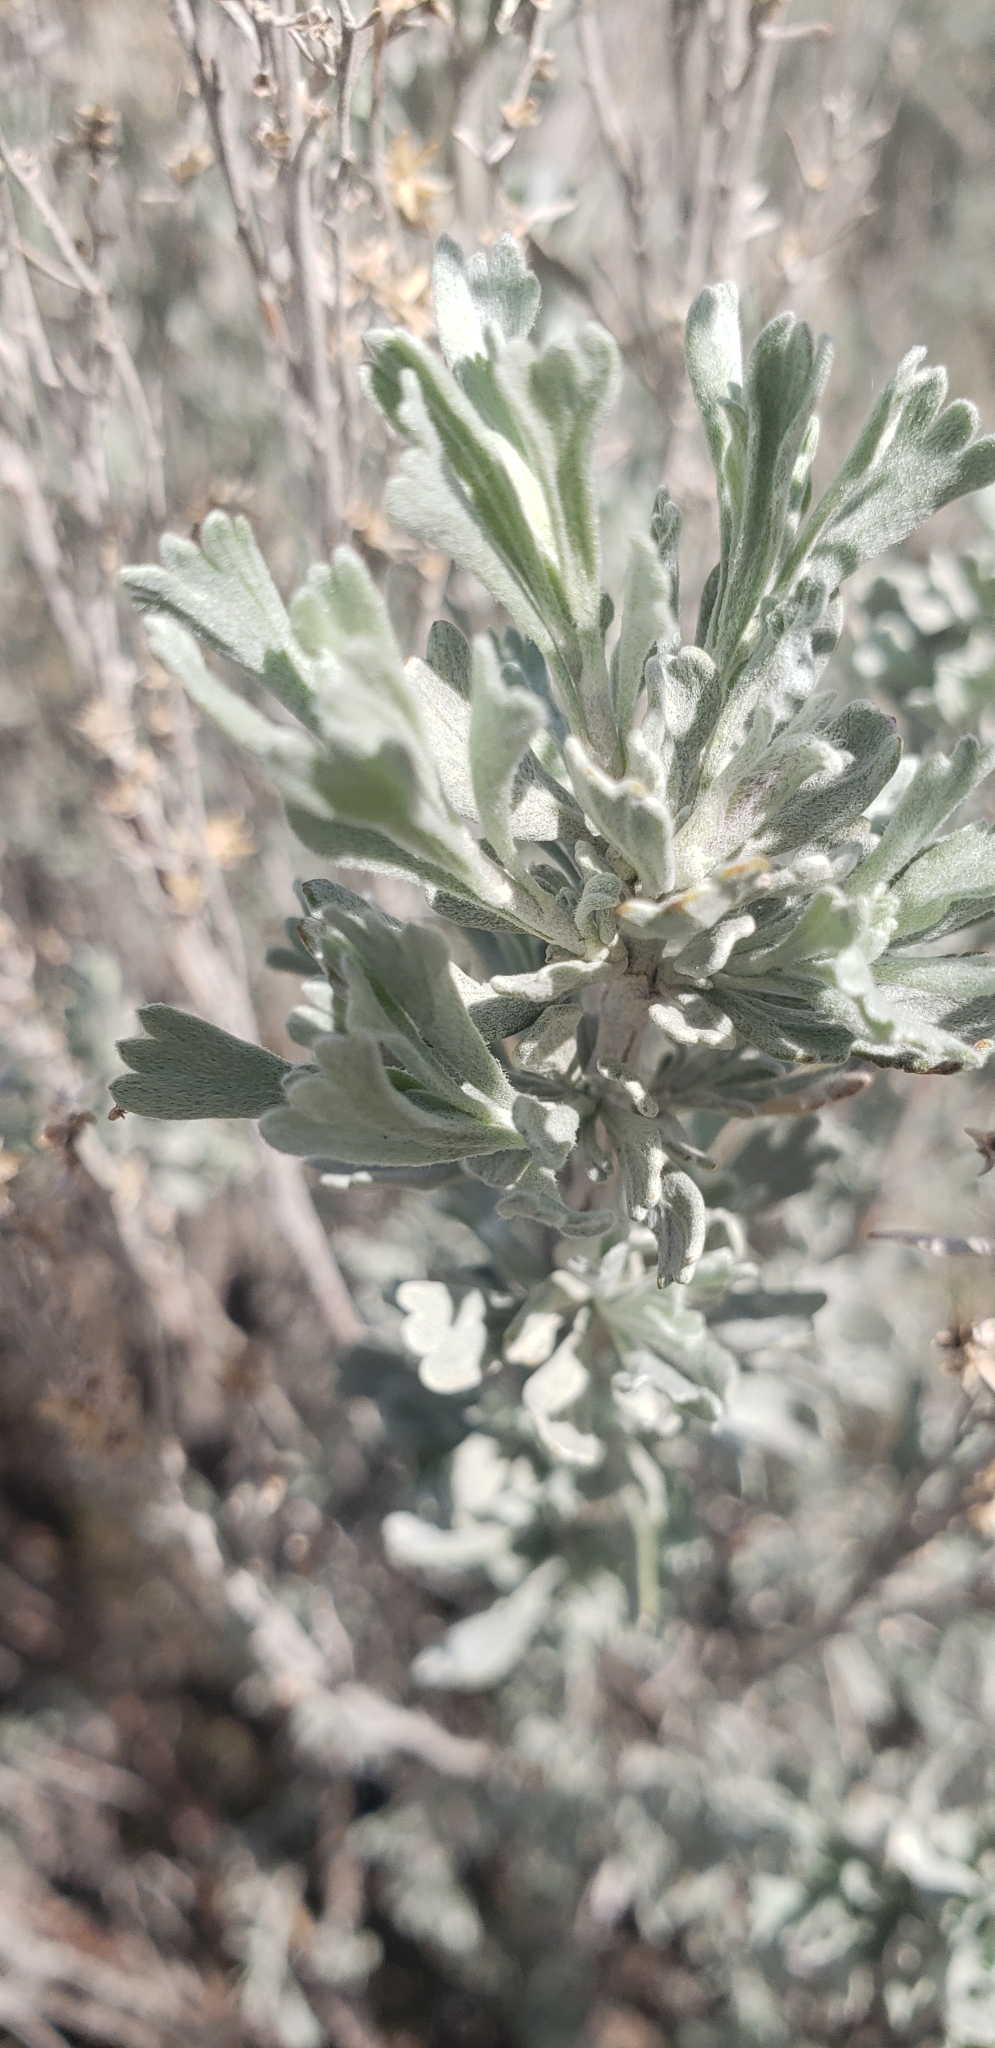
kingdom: Plantae
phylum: Tracheophyta
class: Magnoliopsida
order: Asterales
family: Asteraceae
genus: Artemisia
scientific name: Artemisia tridentata
